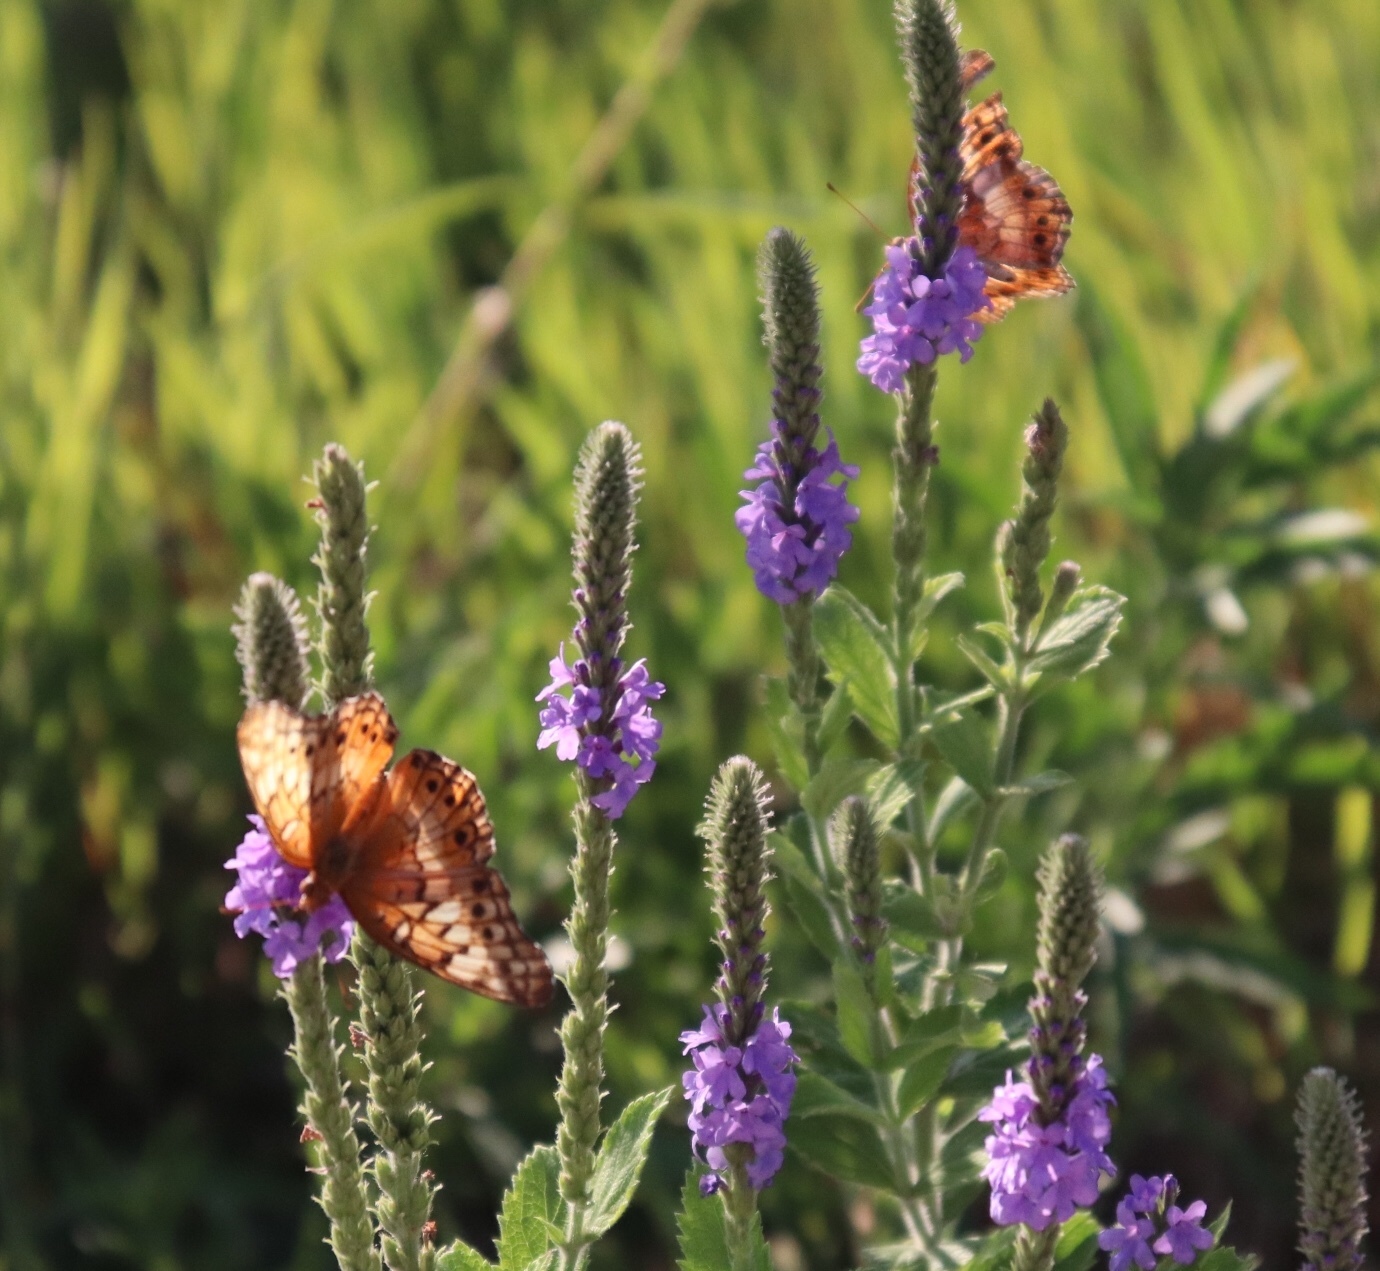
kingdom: Animalia
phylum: Arthropoda
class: Insecta
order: Lepidoptera
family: Nymphalidae
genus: Euptoieta
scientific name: Euptoieta claudia
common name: Variegated fritillary
